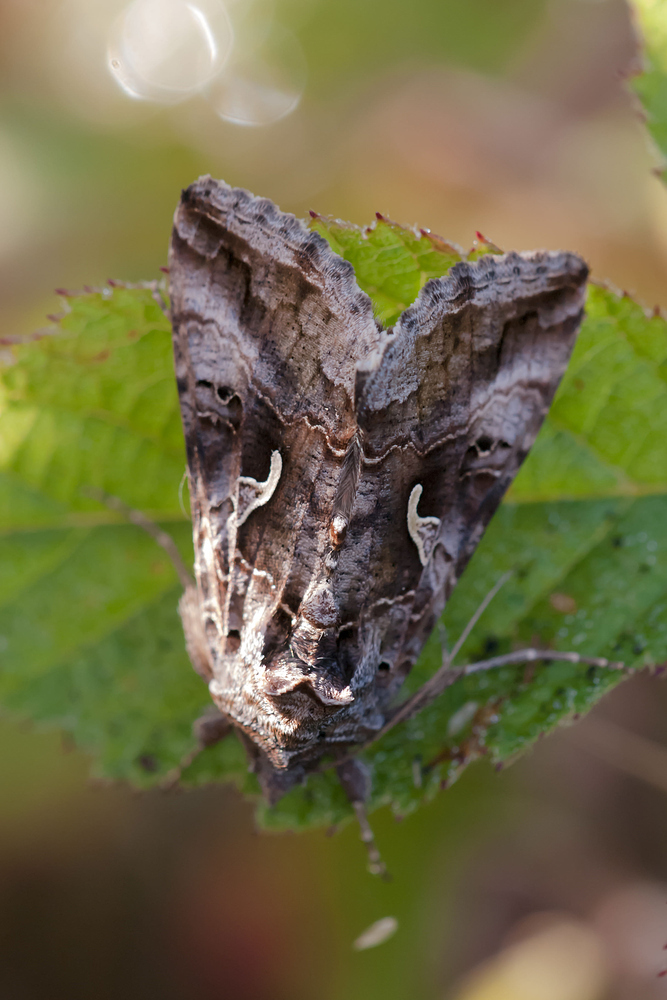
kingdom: Animalia
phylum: Arthropoda
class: Insecta
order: Lepidoptera
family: Noctuidae
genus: Autographa
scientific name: Autographa gamma
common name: Silver y
